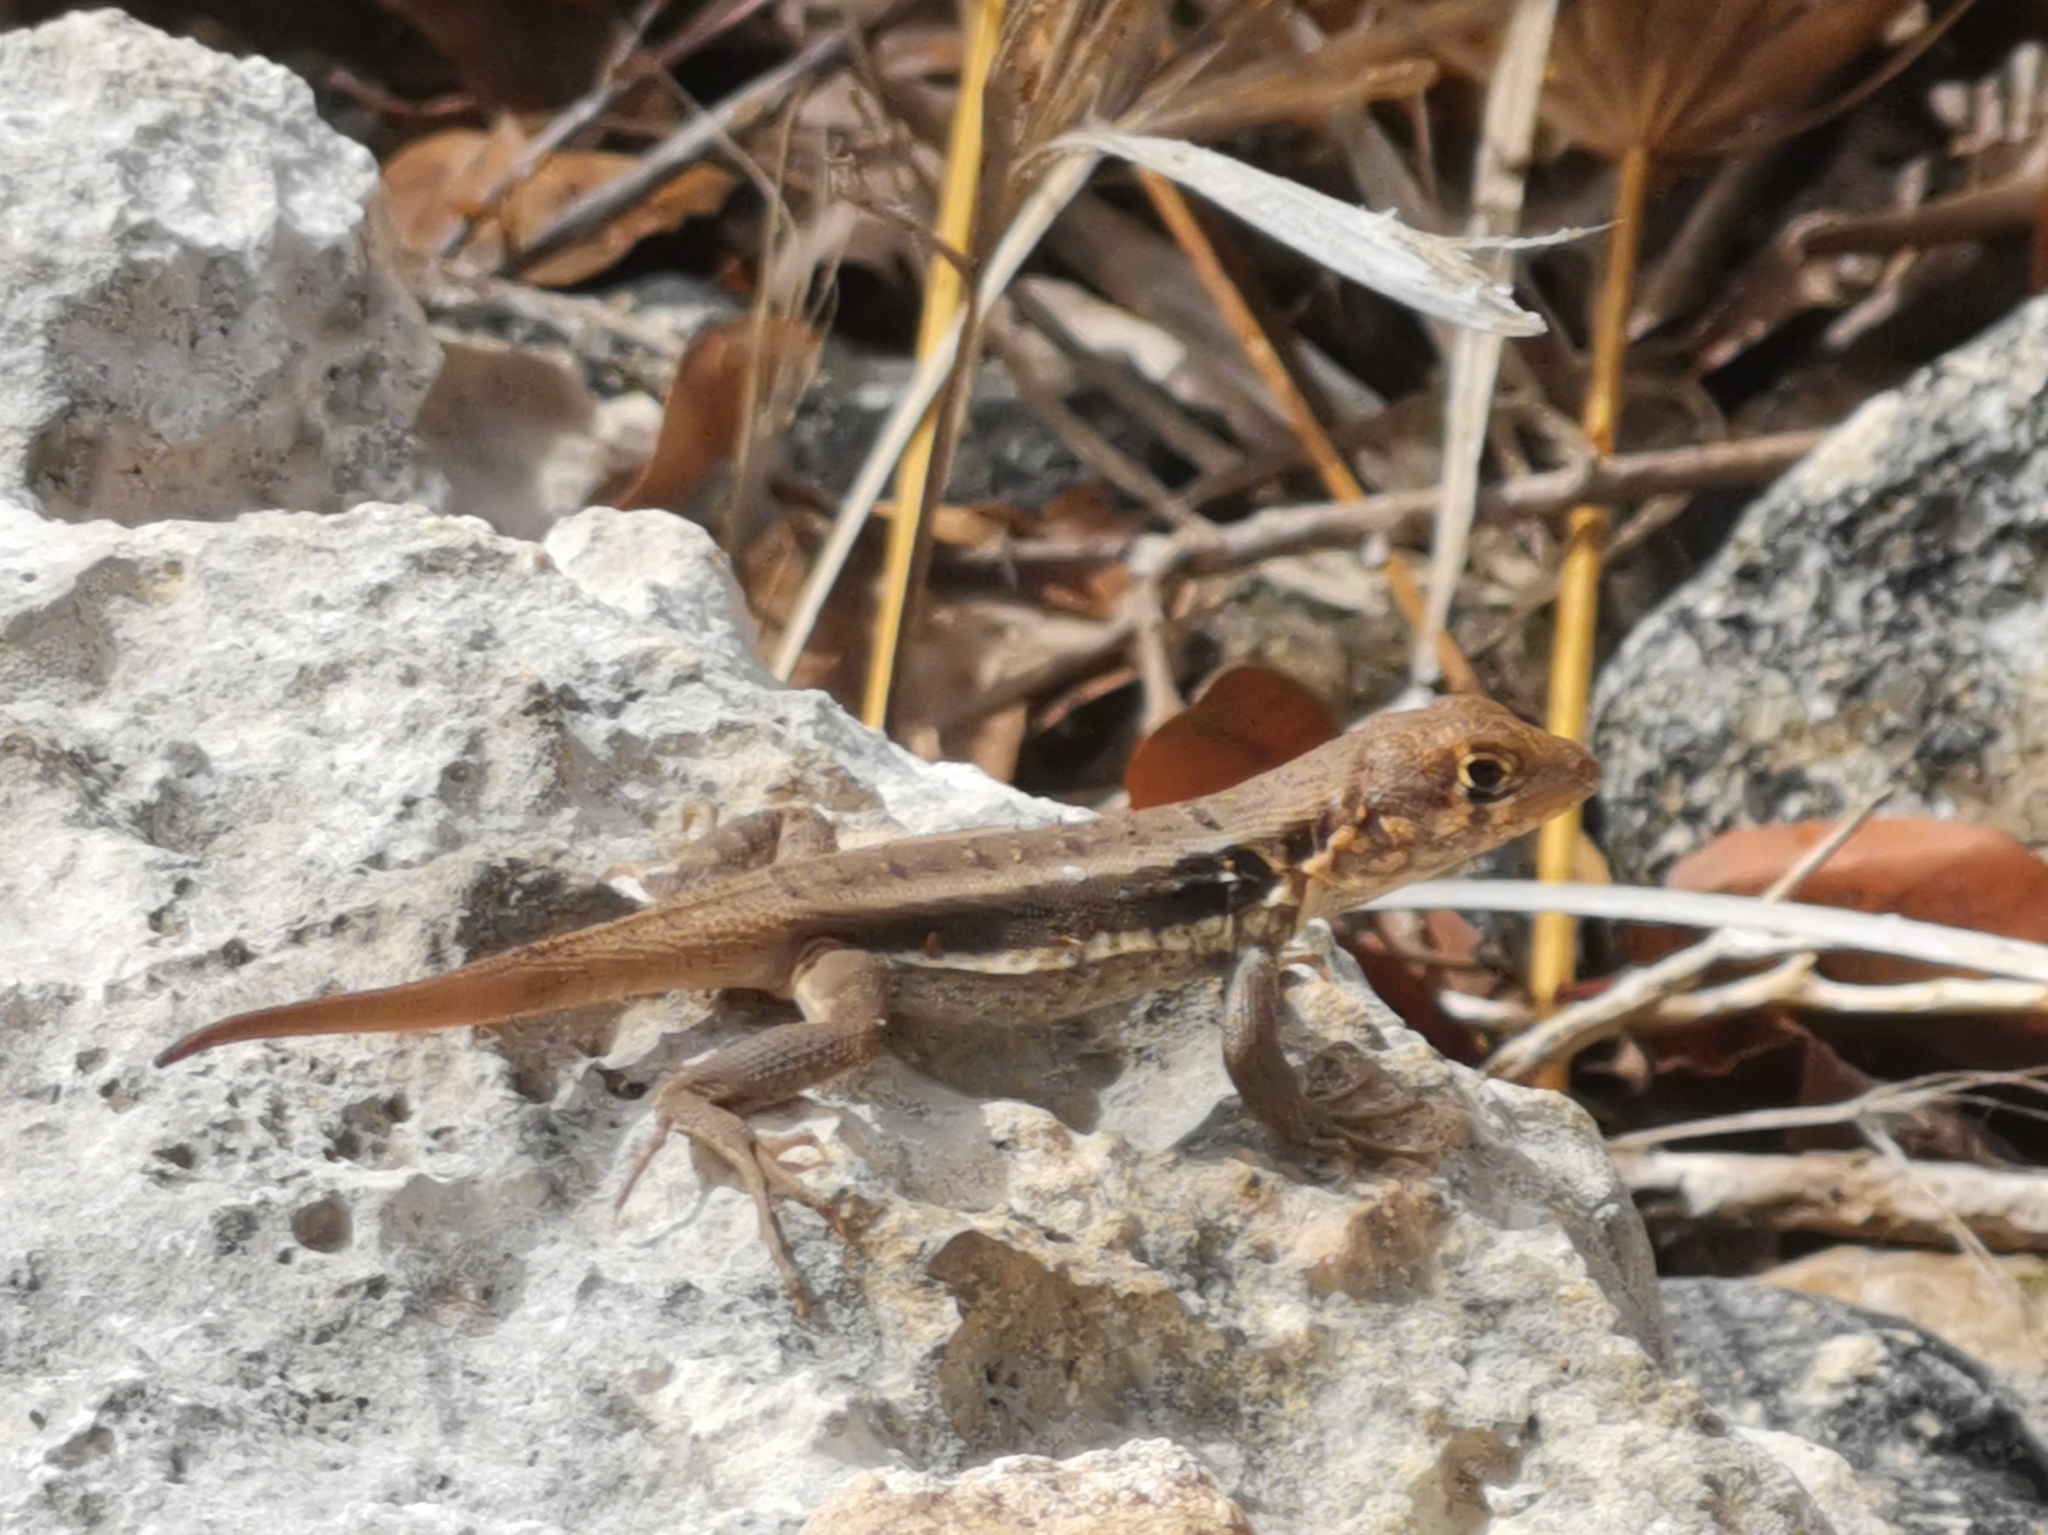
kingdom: Animalia
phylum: Chordata
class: Squamata
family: Leiocephalidae
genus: Leiocephalus
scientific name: Leiocephalus psammodromus
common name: Bastion cay curlytail lizard
